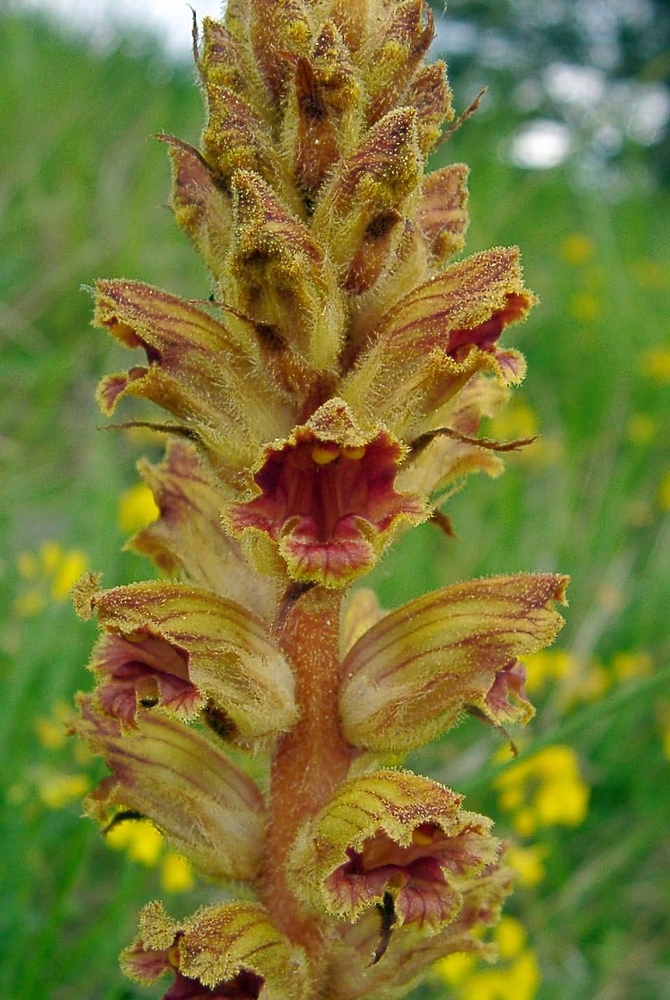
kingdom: Plantae
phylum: Tracheophyta
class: Magnoliopsida
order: Lamiales
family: Orobanchaceae
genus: Orobanche
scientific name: Orobanche gracilis
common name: Slender broomrape
